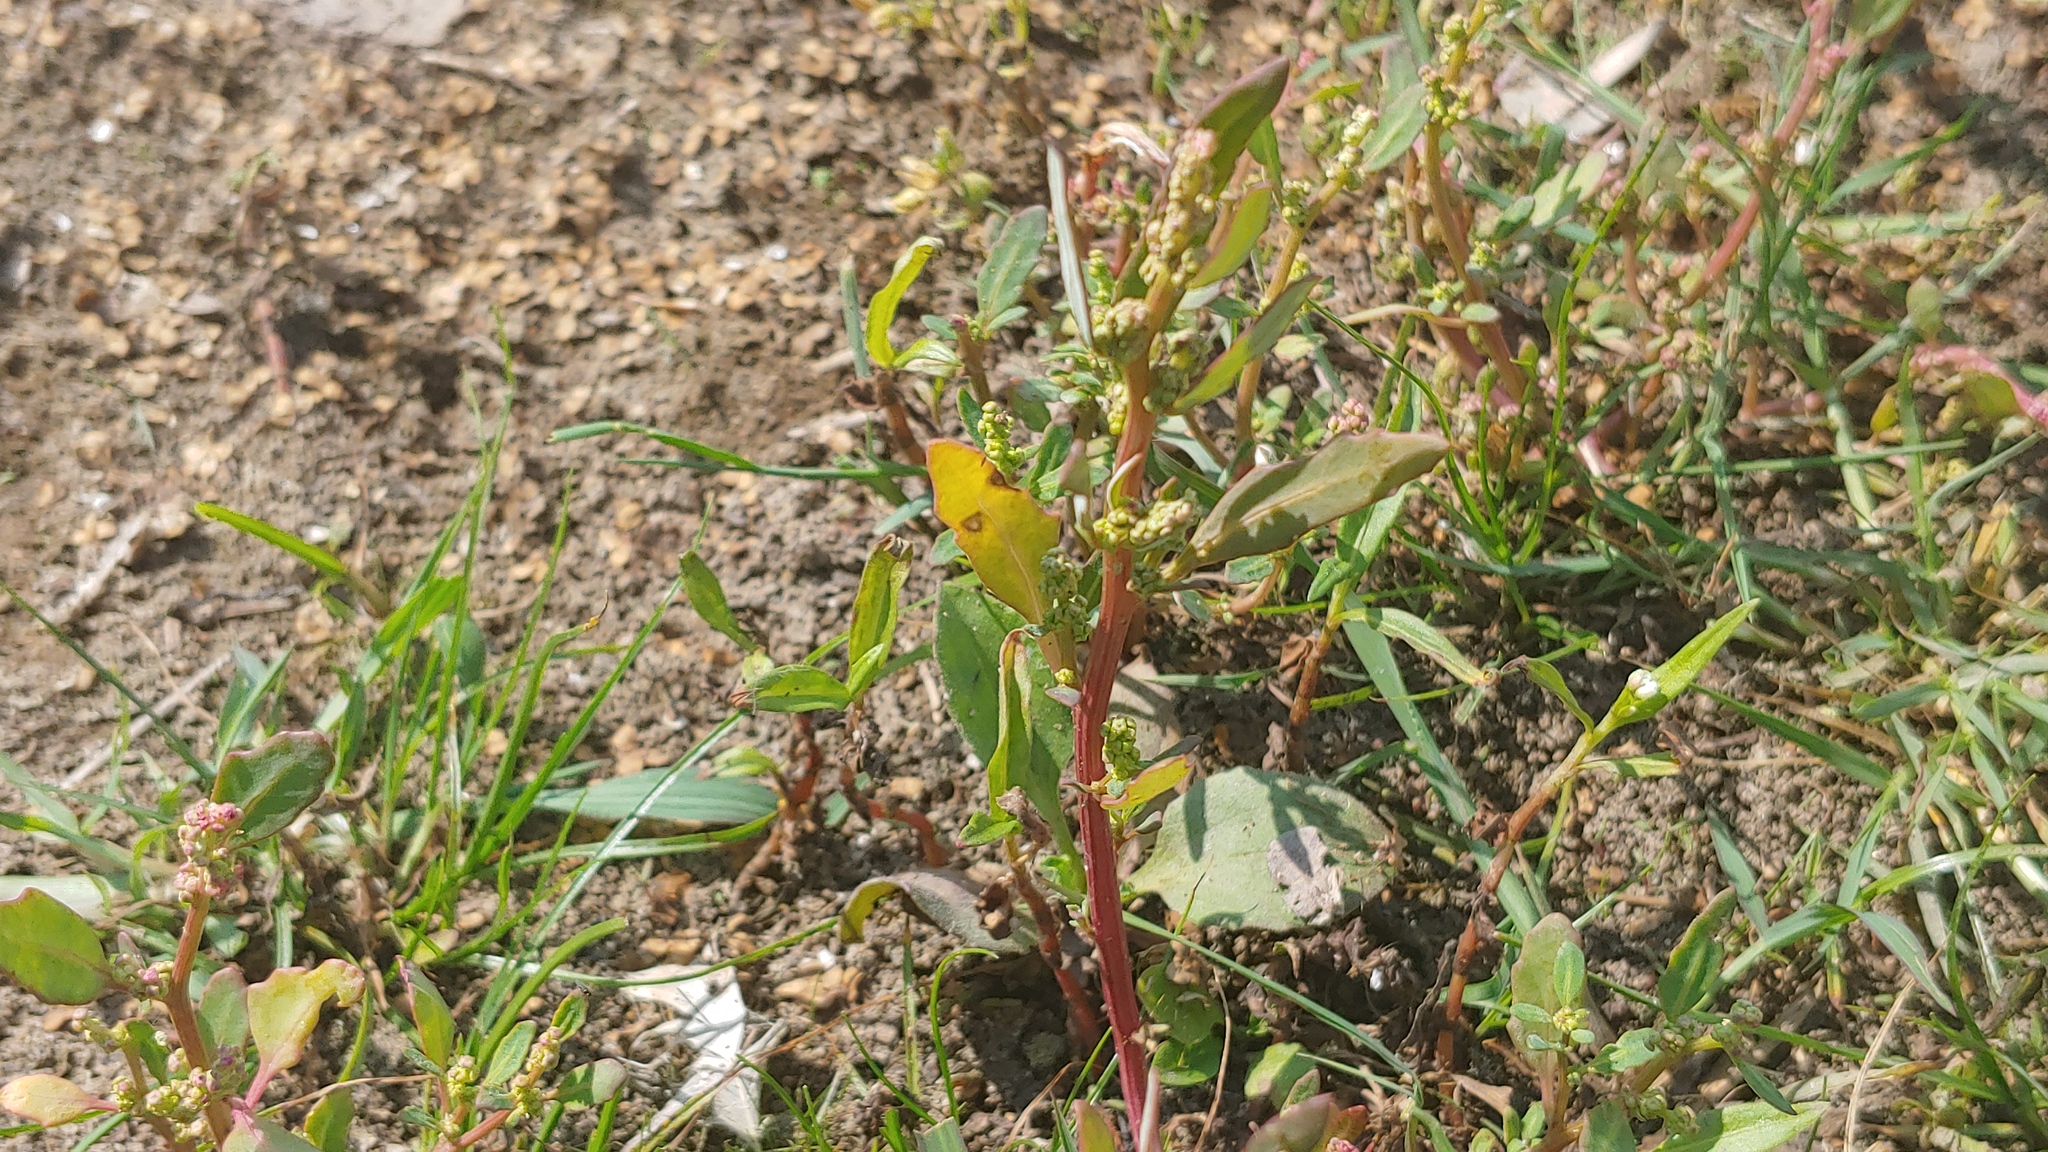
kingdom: Plantae
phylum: Tracheophyta
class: Magnoliopsida
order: Caryophyllales
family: Amaranthaceae
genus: Oxybasis
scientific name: Oxybasis glauca
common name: Glaucous goosefoot
